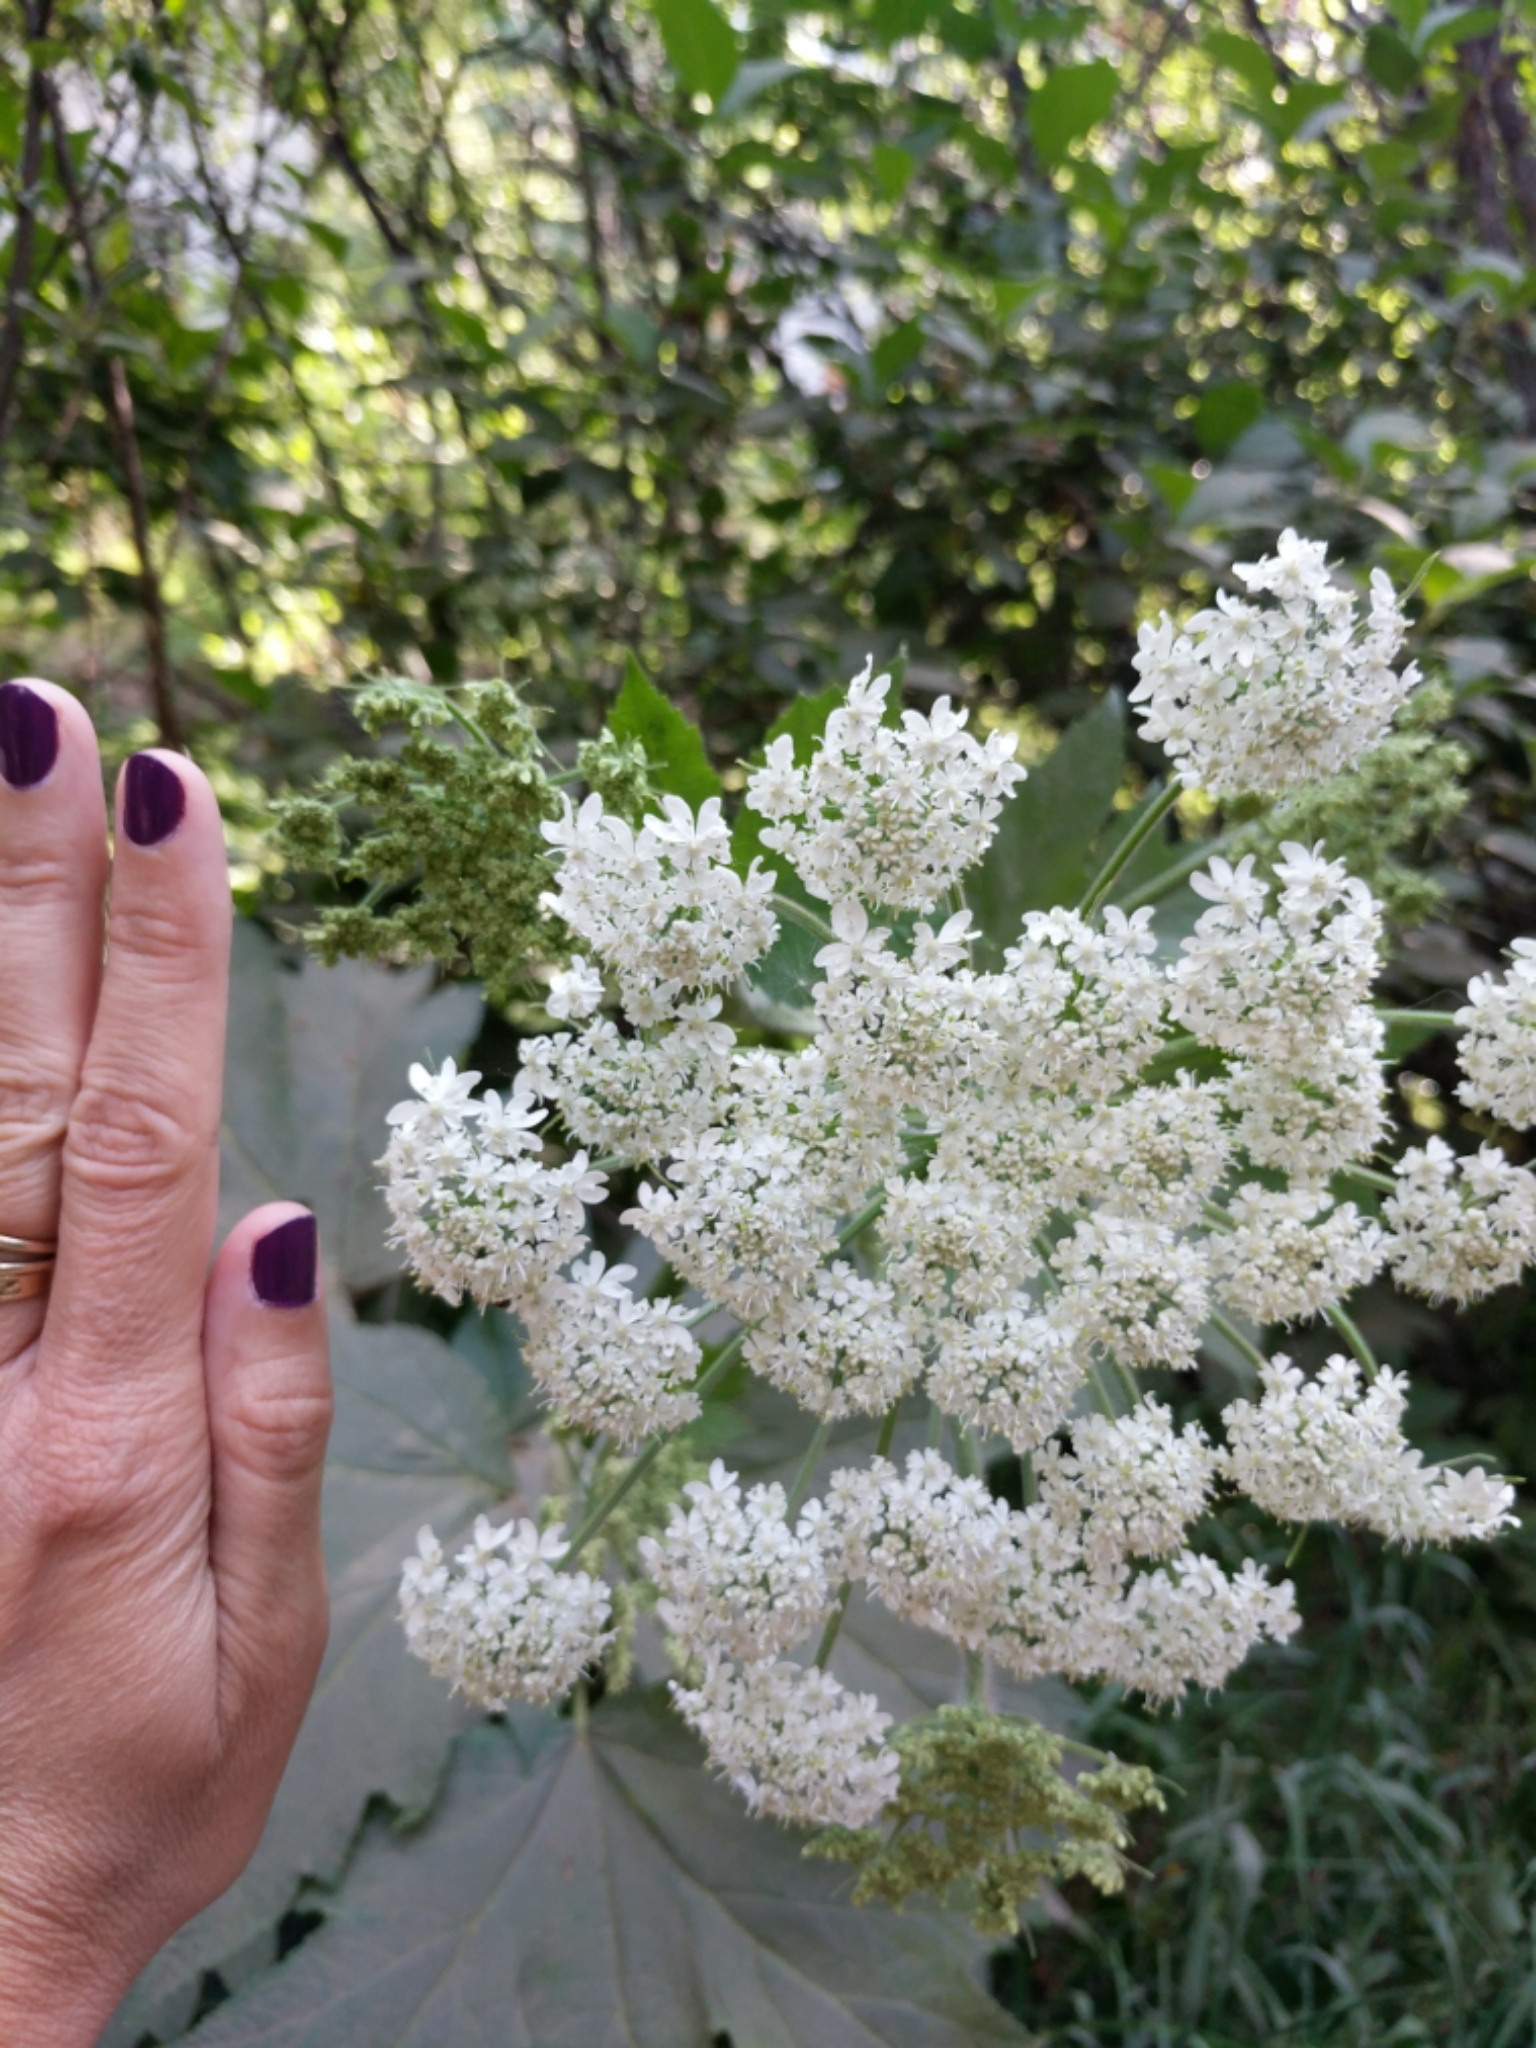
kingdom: Plantae
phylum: Tracheophyta
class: Magnoliopsida
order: Apiales
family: Apiaceae
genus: Heracleum
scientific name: Heracleum maximum
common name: American cow parsnip
